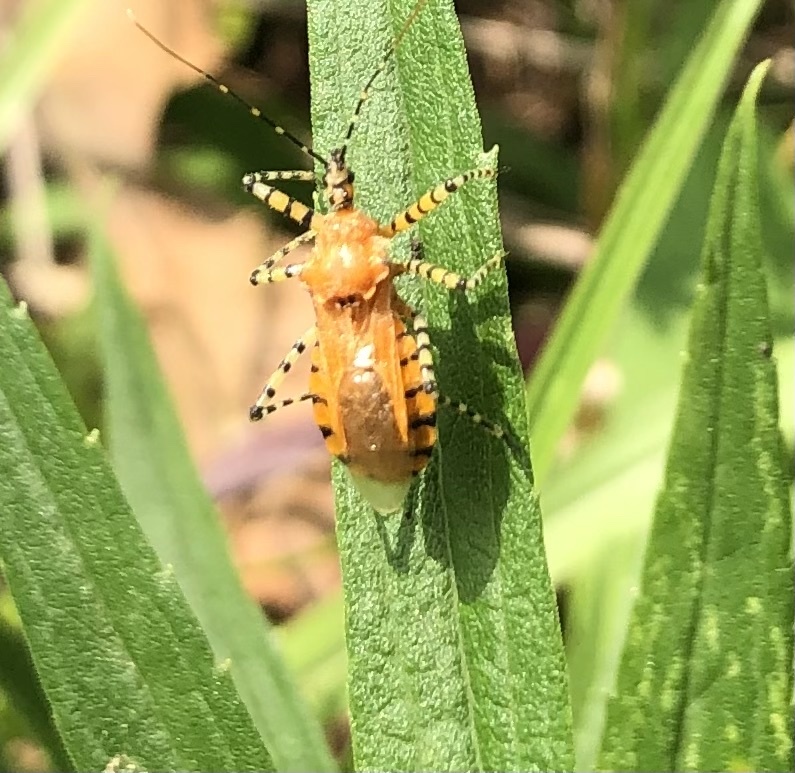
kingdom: Animalia
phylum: Arthropoda
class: Insecta
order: Hemiptera
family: Reduviidae
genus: Pselliopus
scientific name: Pselliopus barberi
